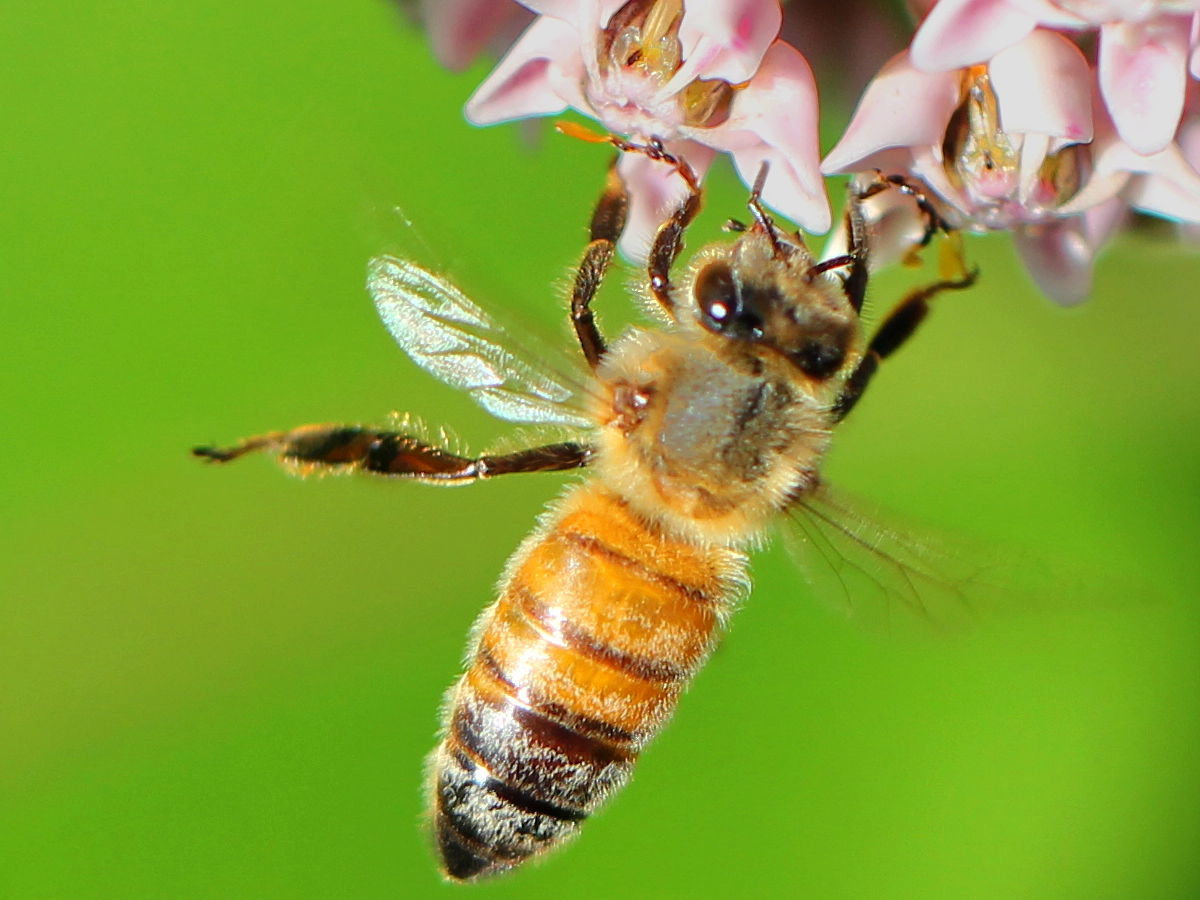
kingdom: Animalia
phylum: Arthropoda
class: Insecta
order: Hymenoptera
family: Apidae
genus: Apis
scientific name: Apis mellifera
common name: Honey bee
